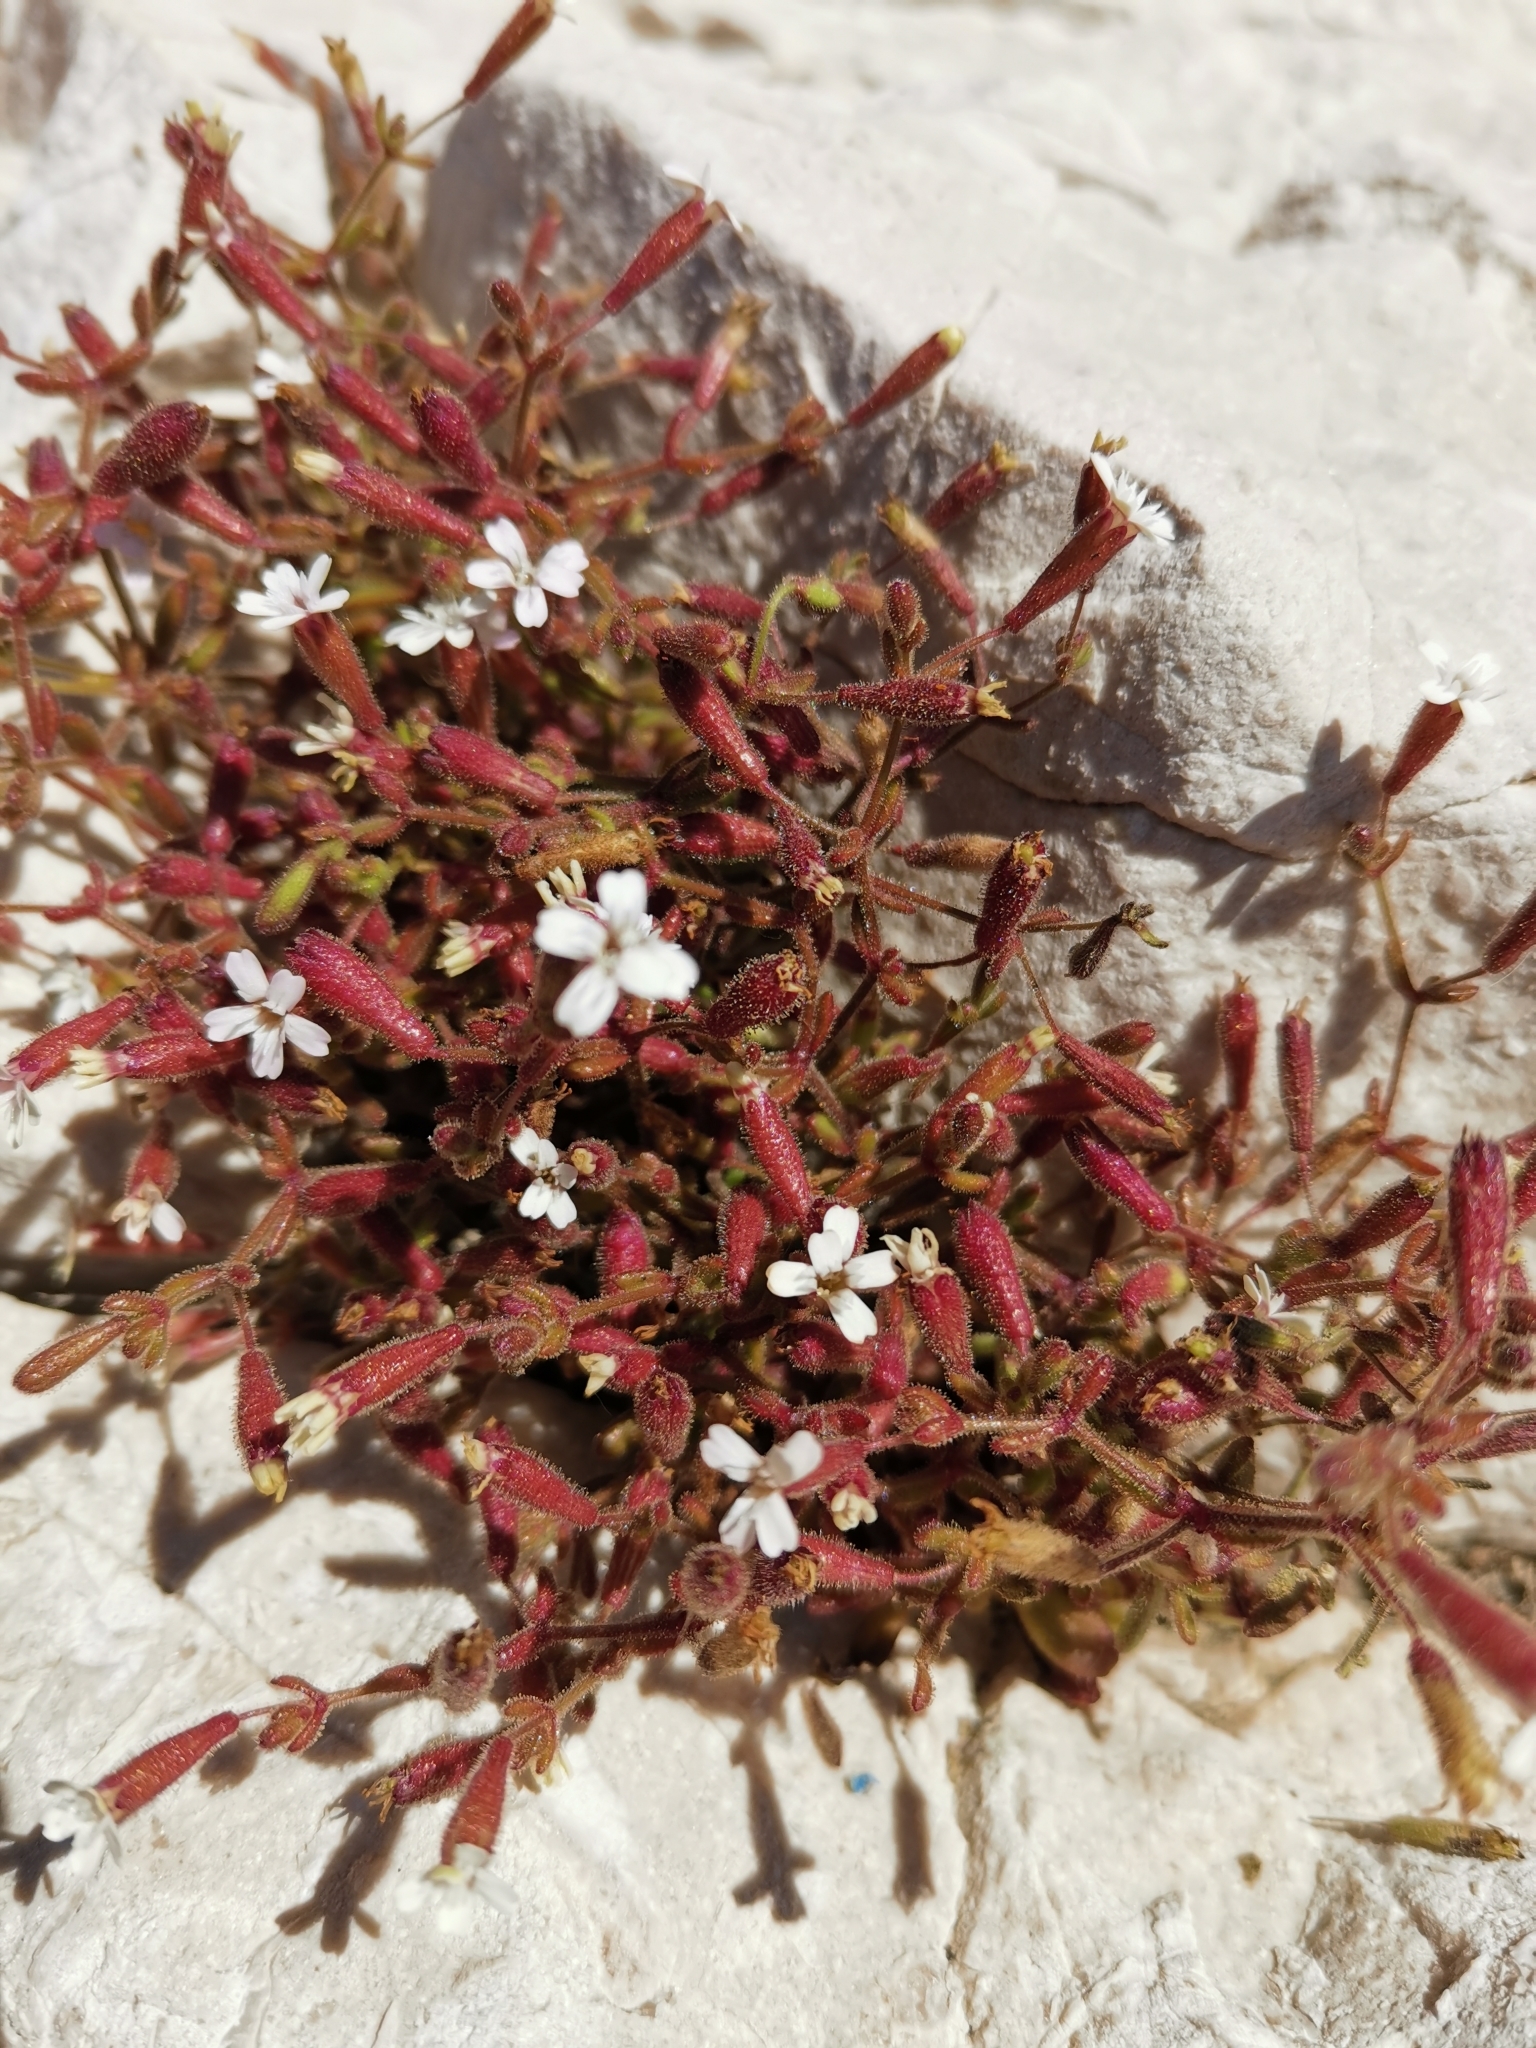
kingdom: Plantae
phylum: Tracheophyta
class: Magnoliopsida
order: Caryophyllales
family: Caryophyllaceae
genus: Silene
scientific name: Silene sedoides
